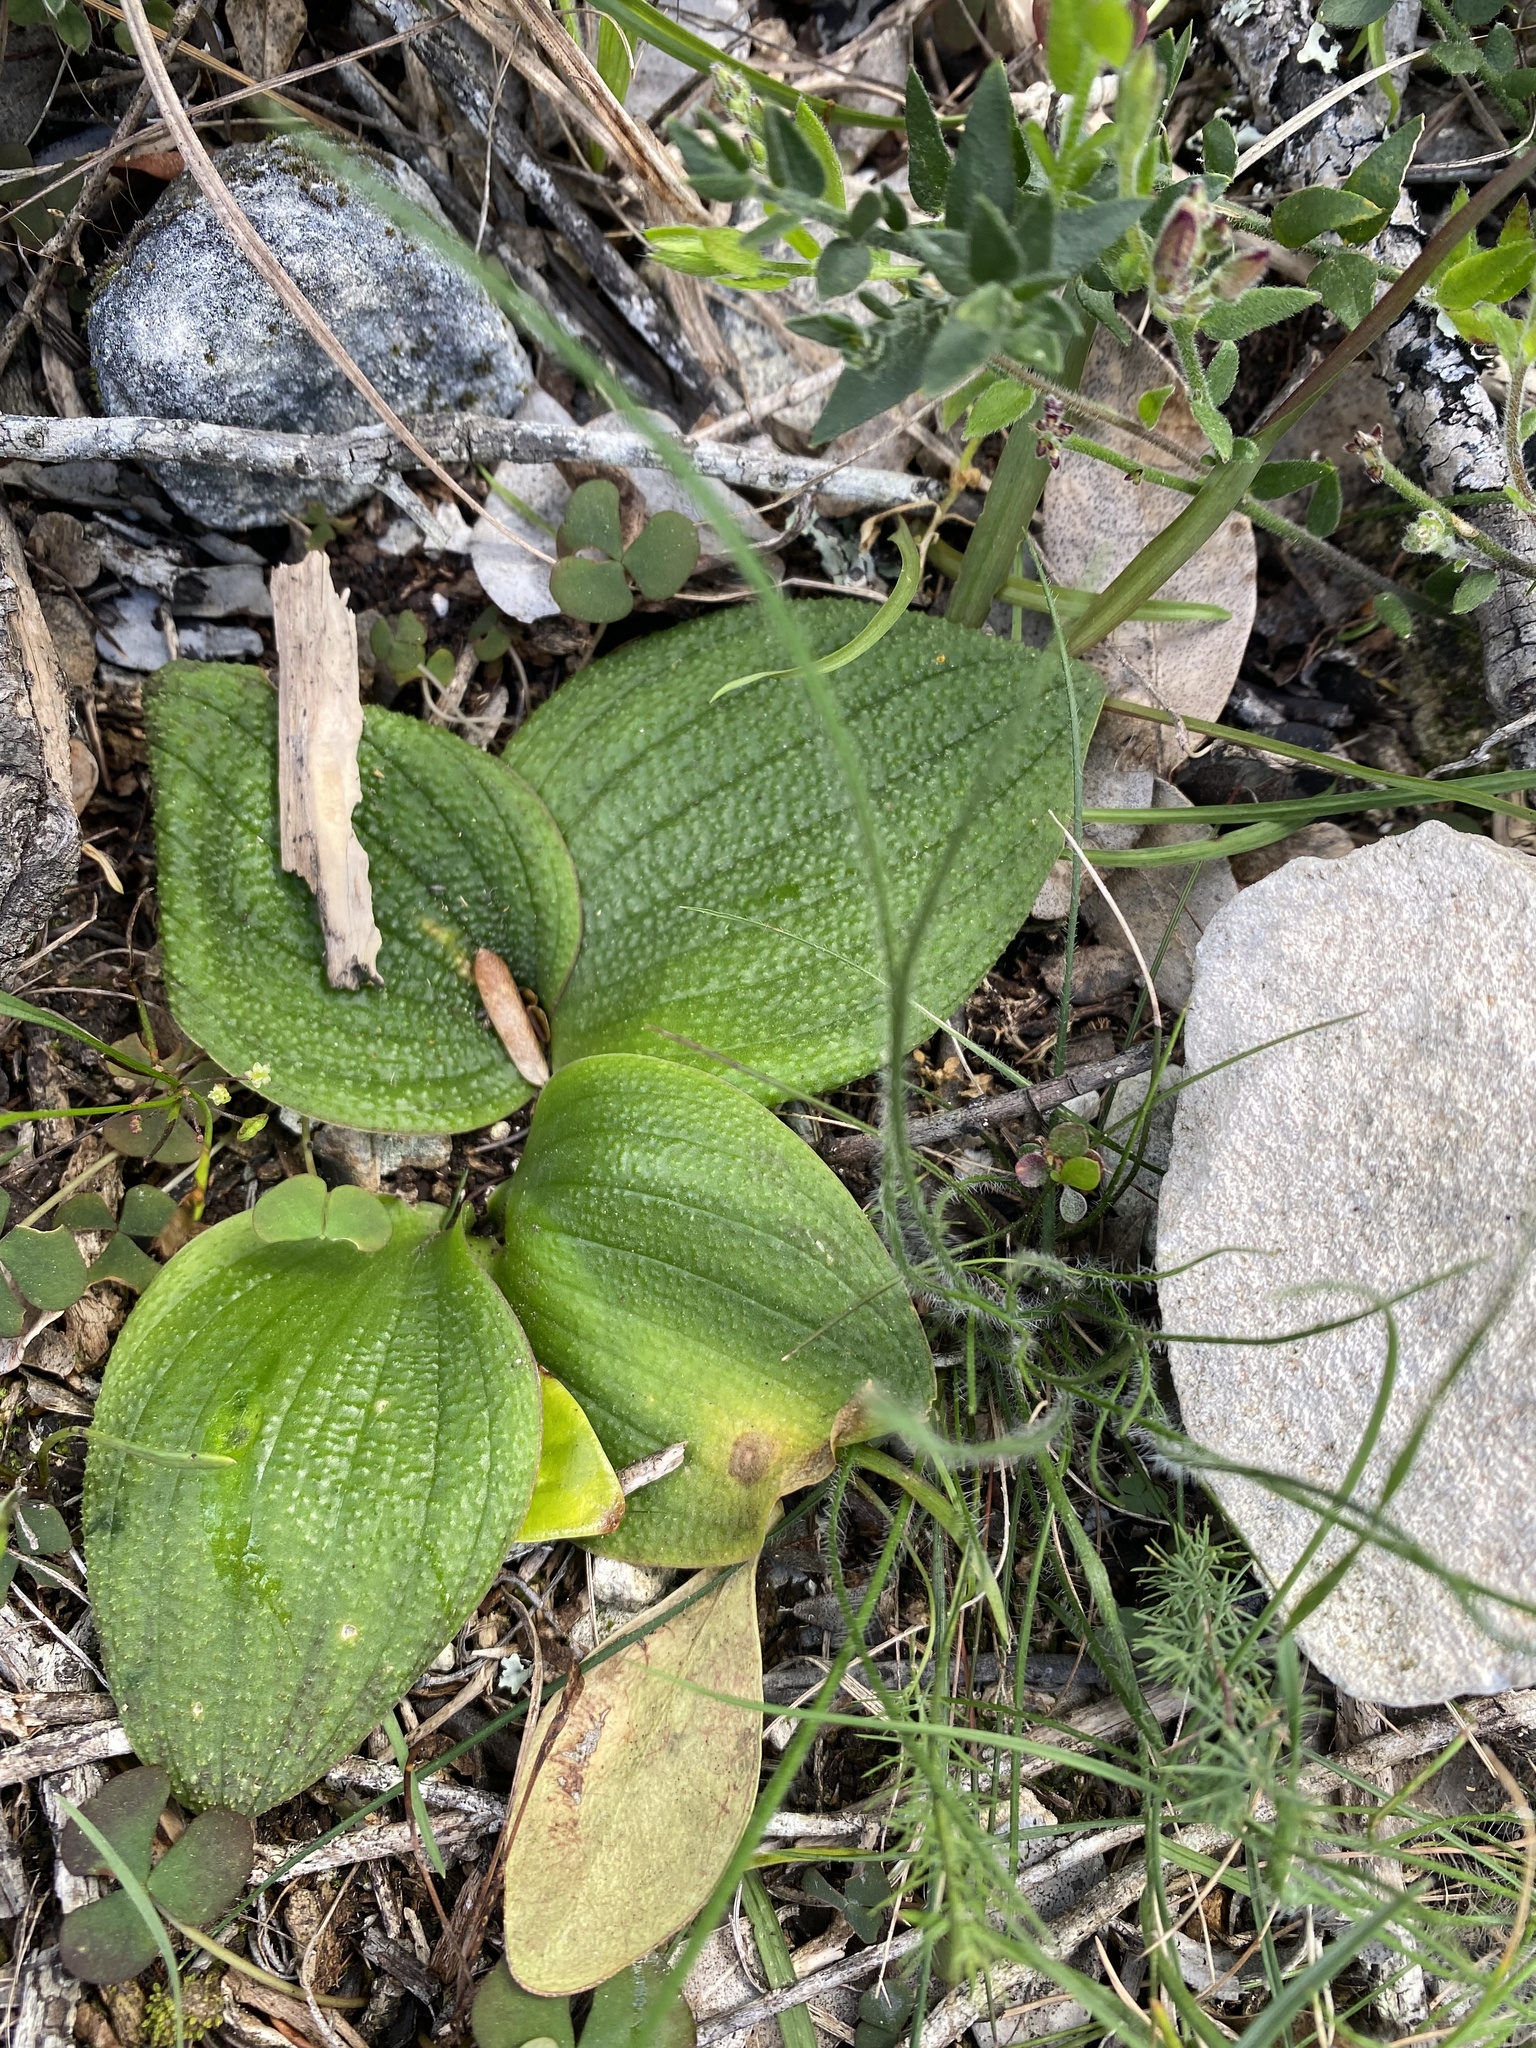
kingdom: Plantae
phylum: Tracheophyta
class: Liliopsida
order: Asparagales
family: Asparagaceae
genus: Massonia
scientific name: Massonia longipes
